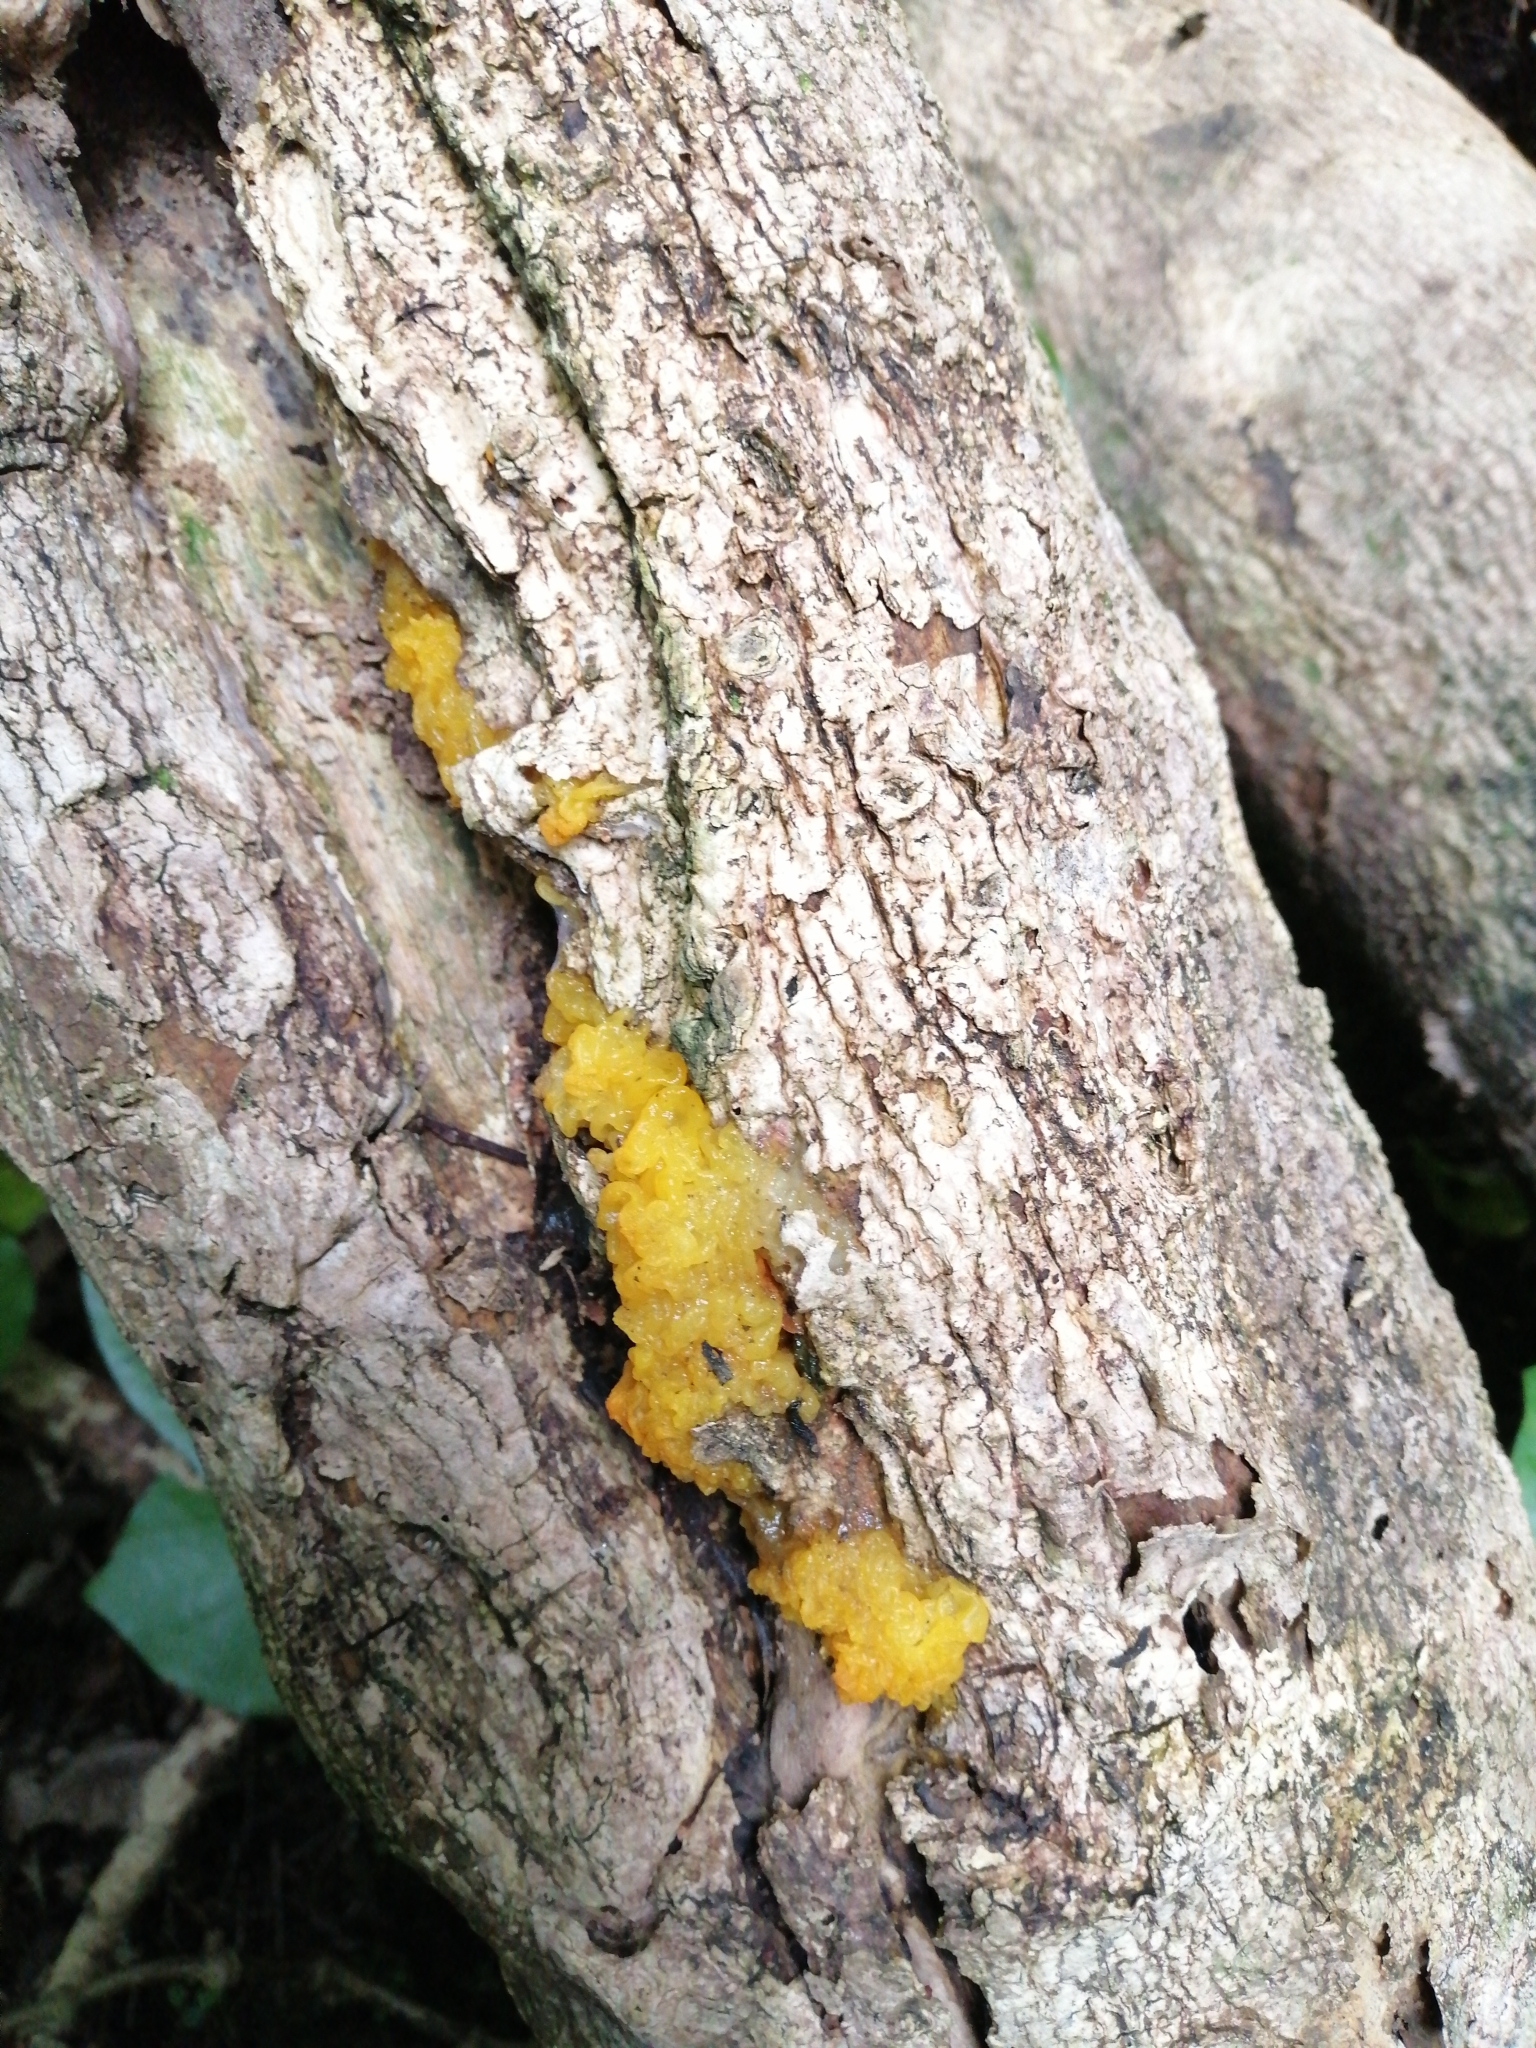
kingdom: Fungi
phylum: Basidiomycota
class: Tremellomycetes
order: Tremellales
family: Tremellaceae
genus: Tremella
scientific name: Tremella mesenterica
